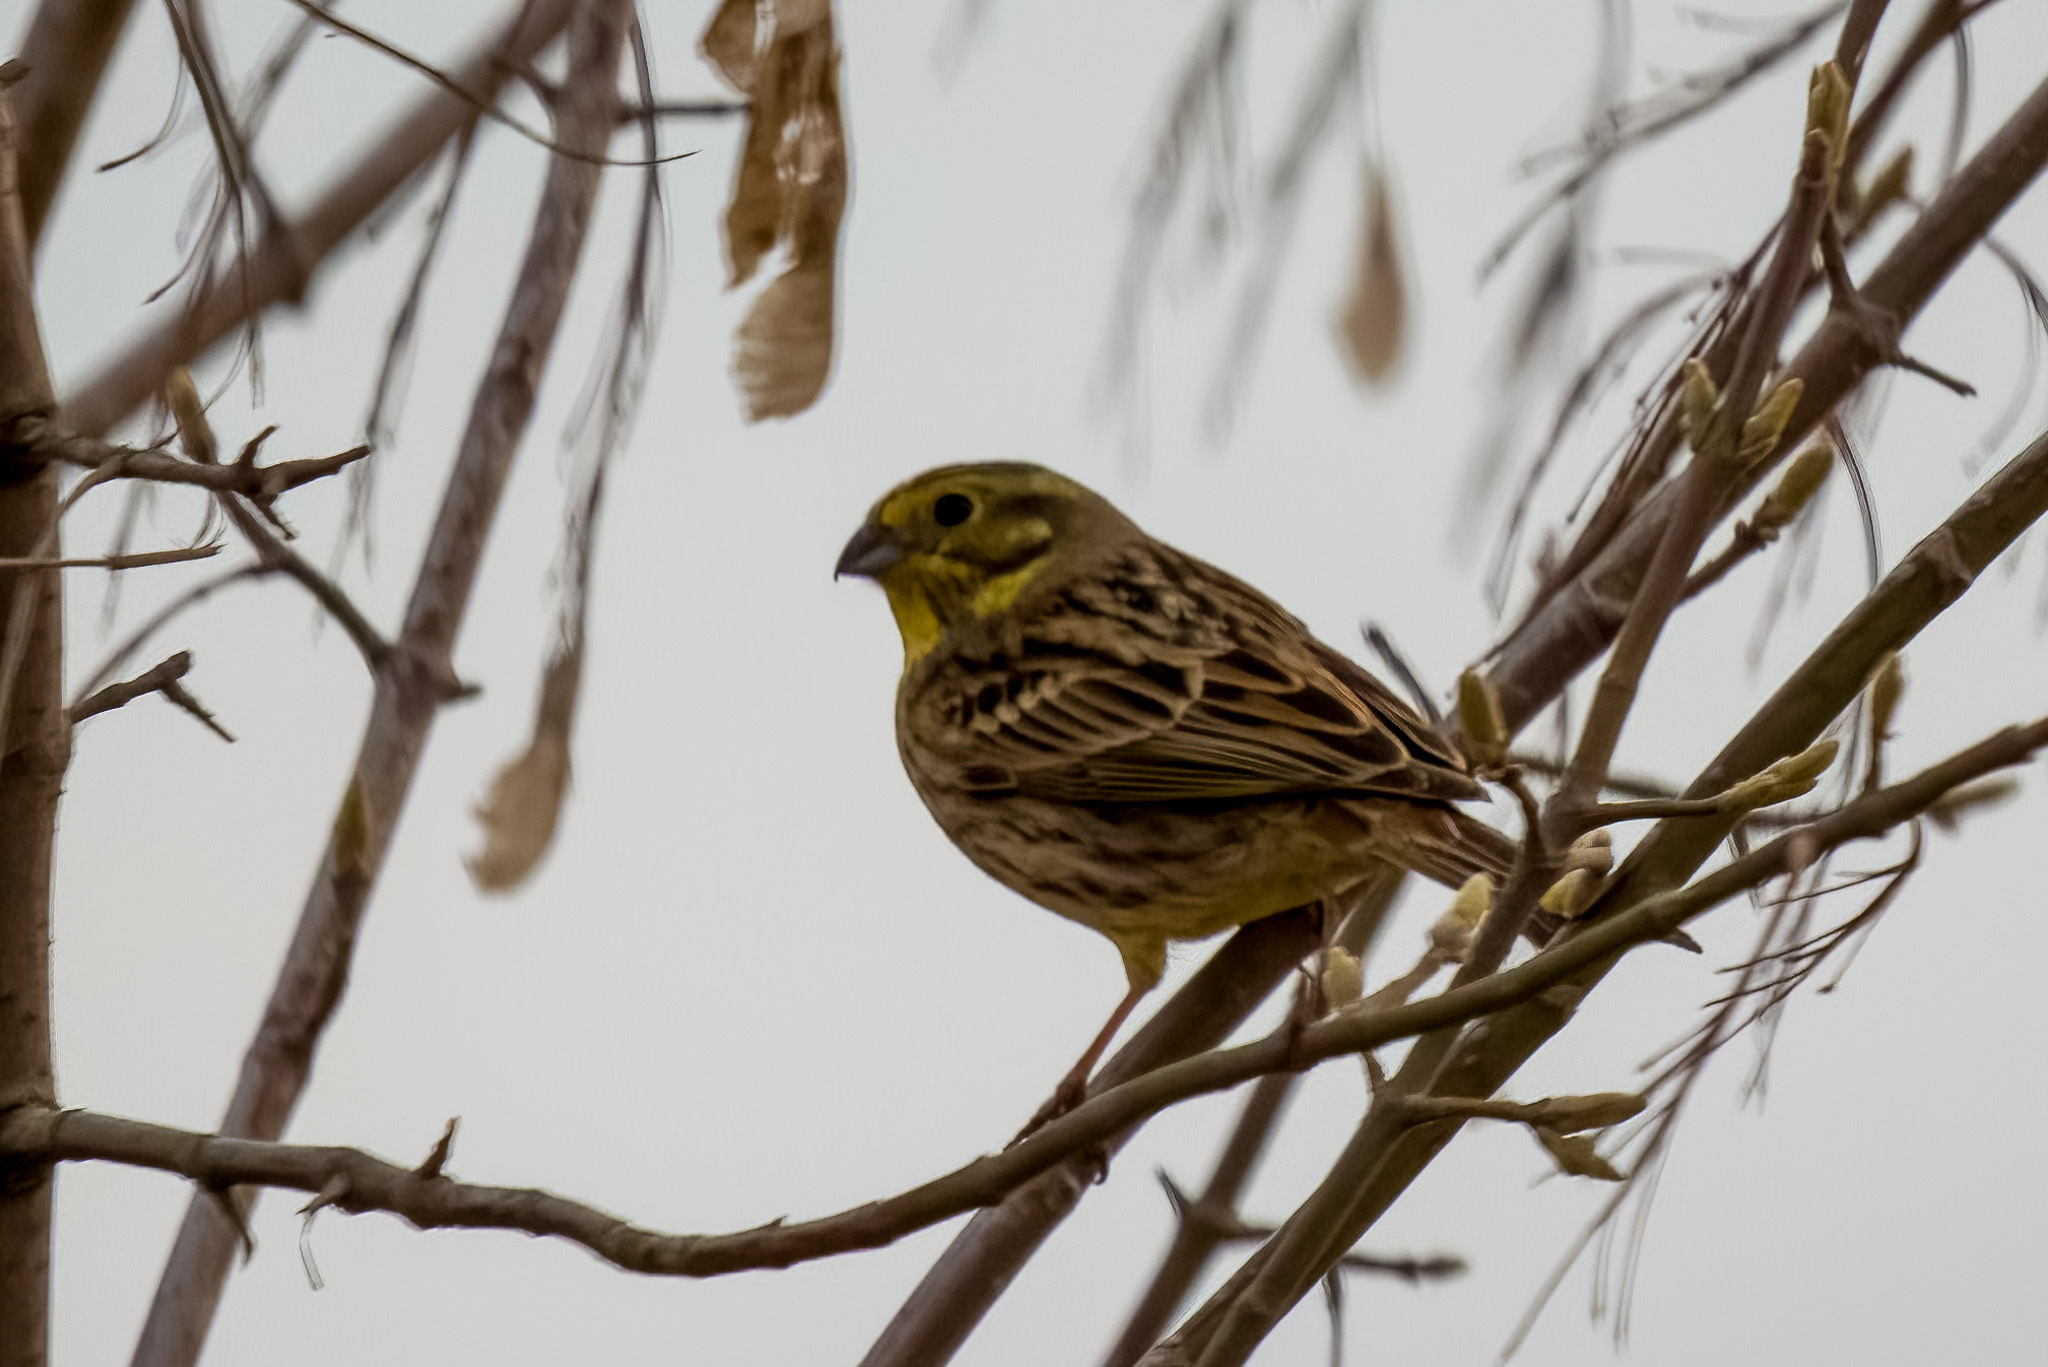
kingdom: Animalia
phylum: Chordata
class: Aves
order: Passeriformes
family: Emberizidae
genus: Emberiza
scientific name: Emberiza citrinella
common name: Yellowhammer
